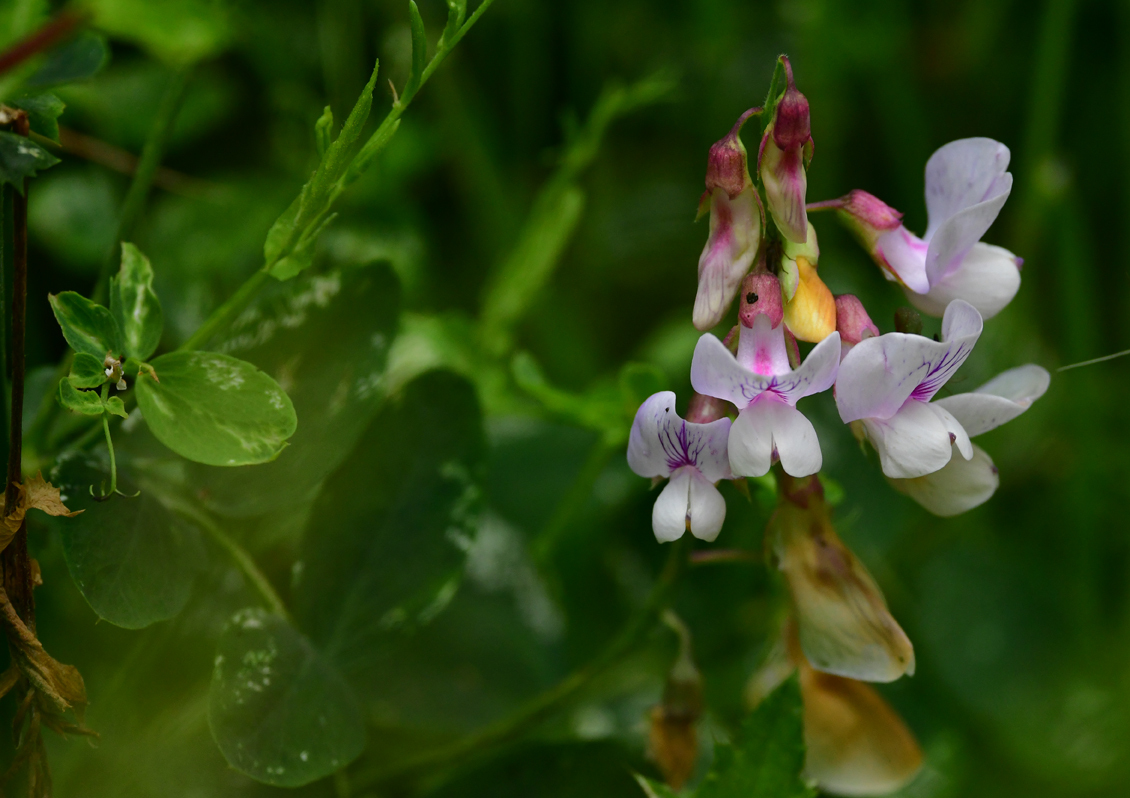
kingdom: Plantae
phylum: Tracheophyta
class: Magnoliopsida
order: Fabales
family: Fabaceae
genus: Lathyrus
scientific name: Lathyrus vestitus
